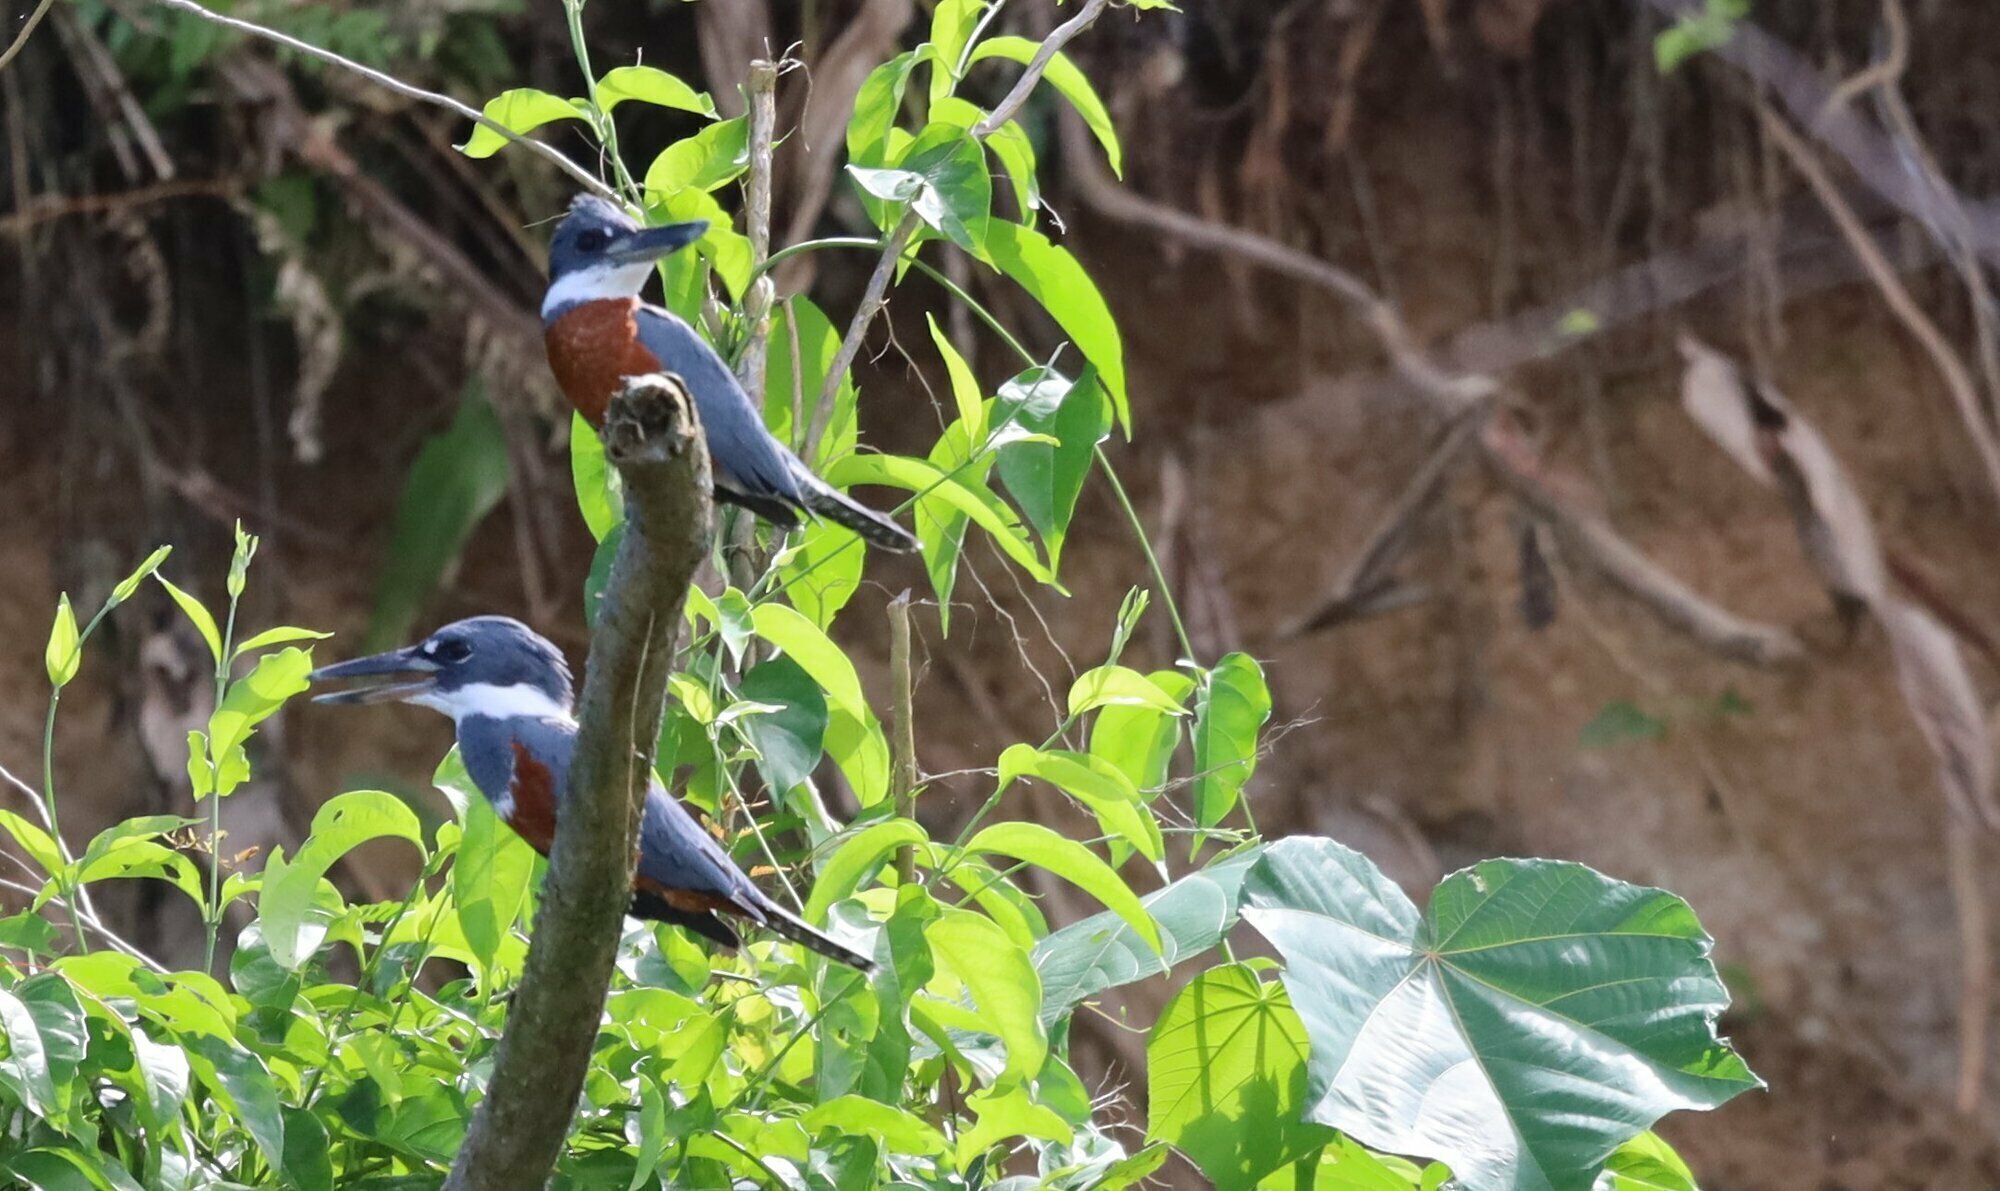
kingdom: Animalia
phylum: Chordata
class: Aves
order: Coraciiformes
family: Alcedinidae
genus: Megaceryle
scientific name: Megaceryle torquata
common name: Ringed kingfisher
